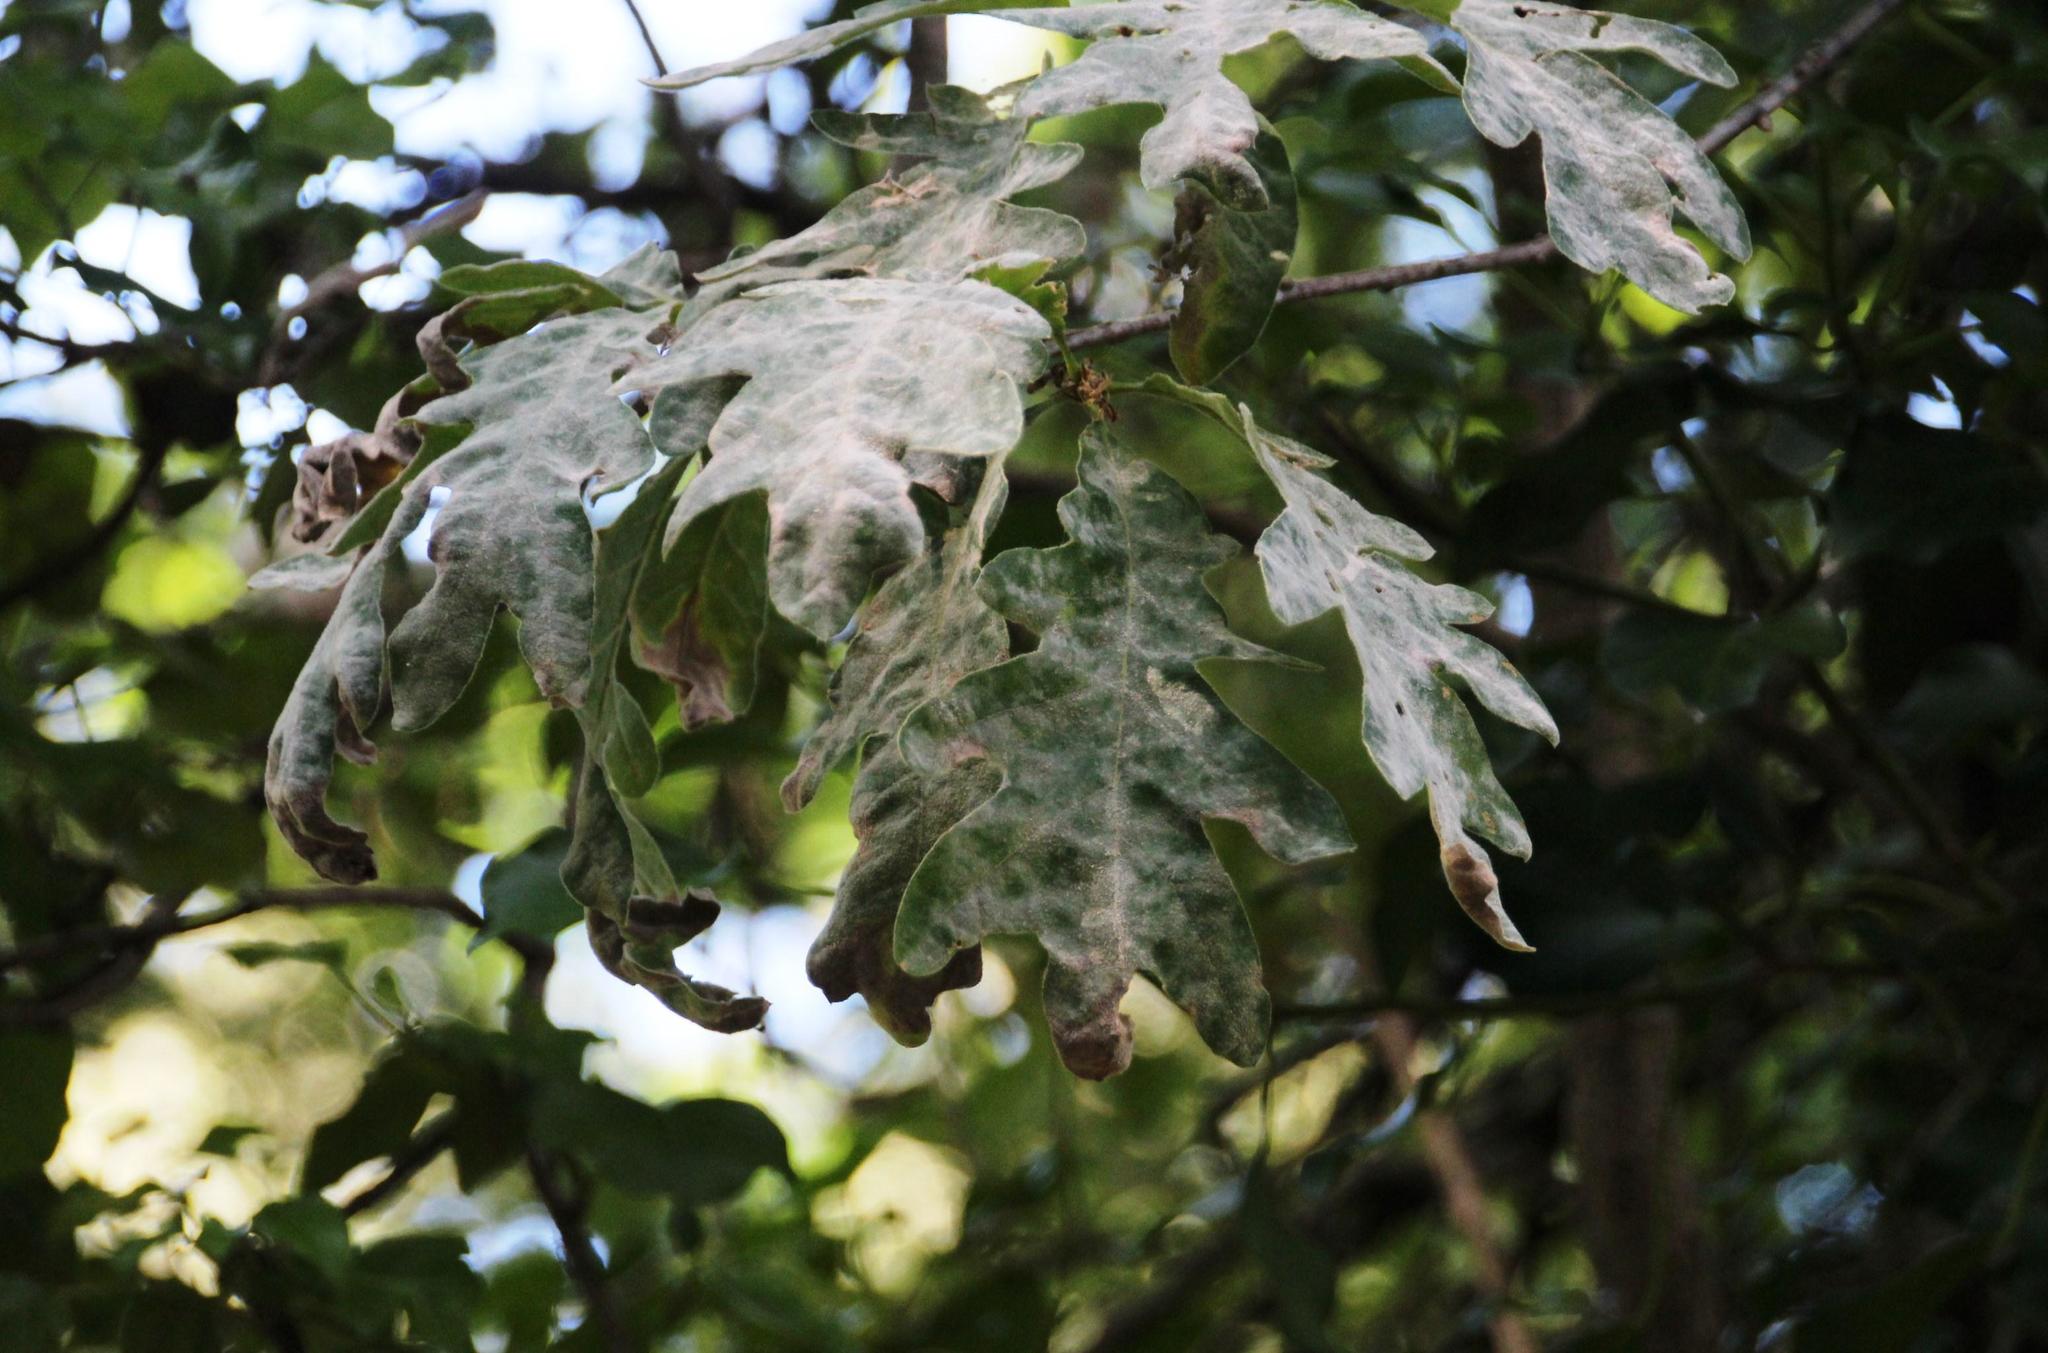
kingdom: Plantae
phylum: Tracheophyta
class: Magnoliopsida
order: Fagales
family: Fagaceae
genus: Quercus
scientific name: Quercus pyrenaica
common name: Pyrenean oak
